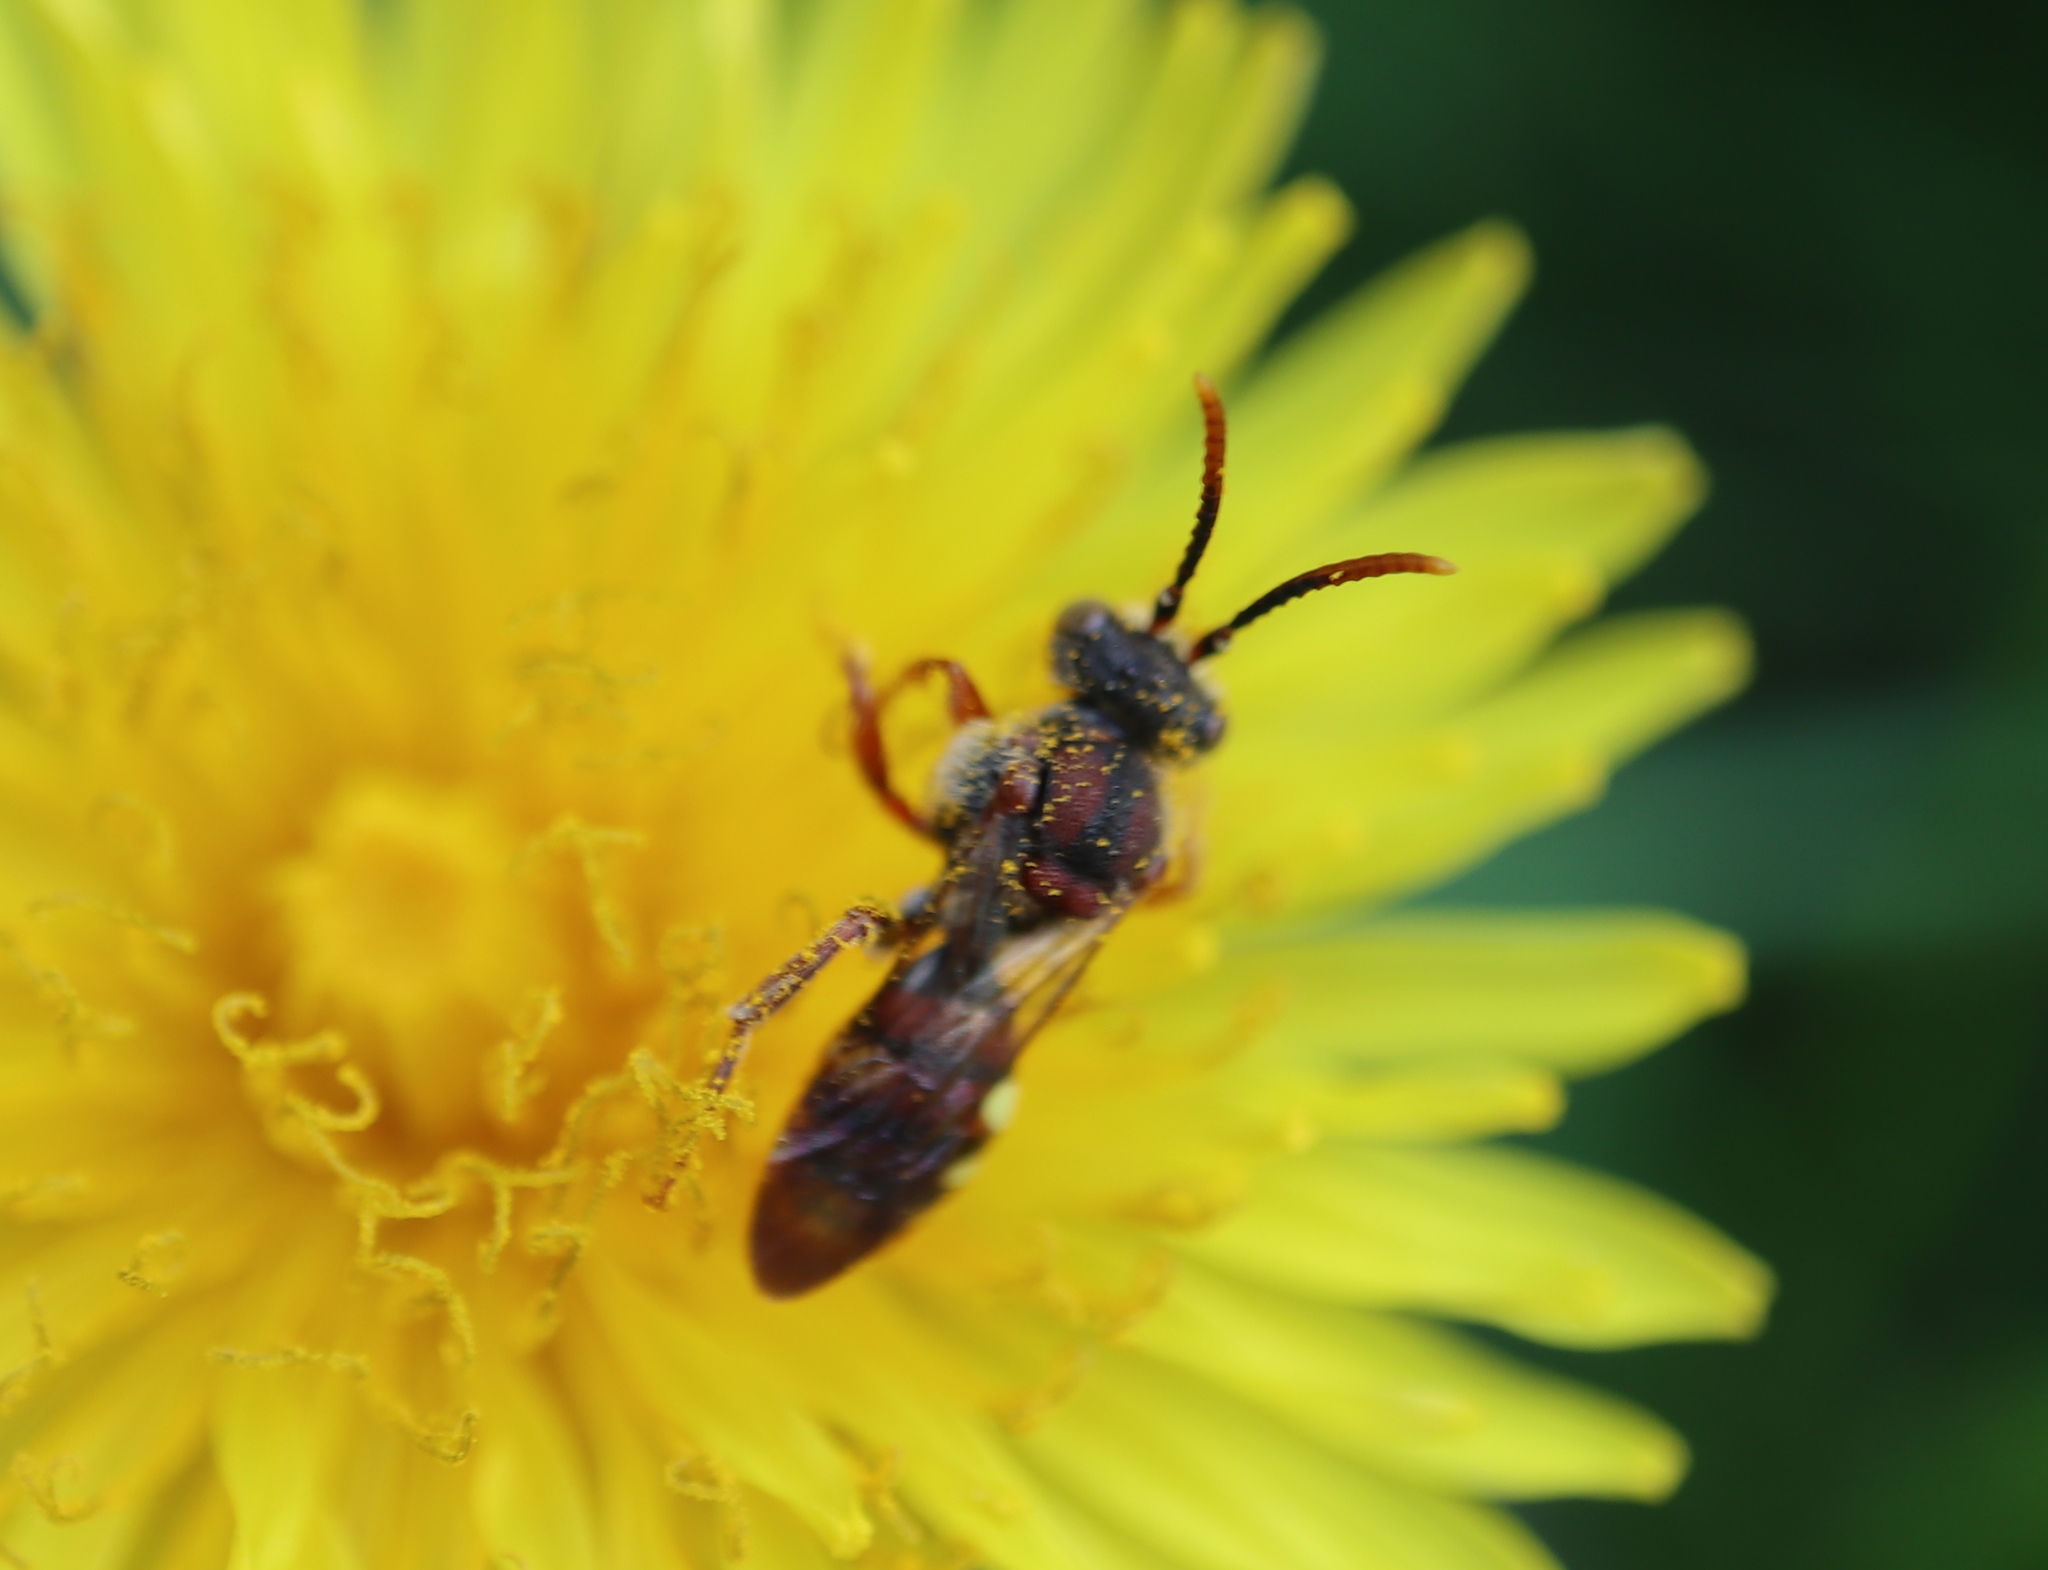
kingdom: Animalia
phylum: Arthropoda
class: Insecta
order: Hymenoptera
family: Apidae
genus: Nomada
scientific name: Nomada denticulata
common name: Denticulate nomad
